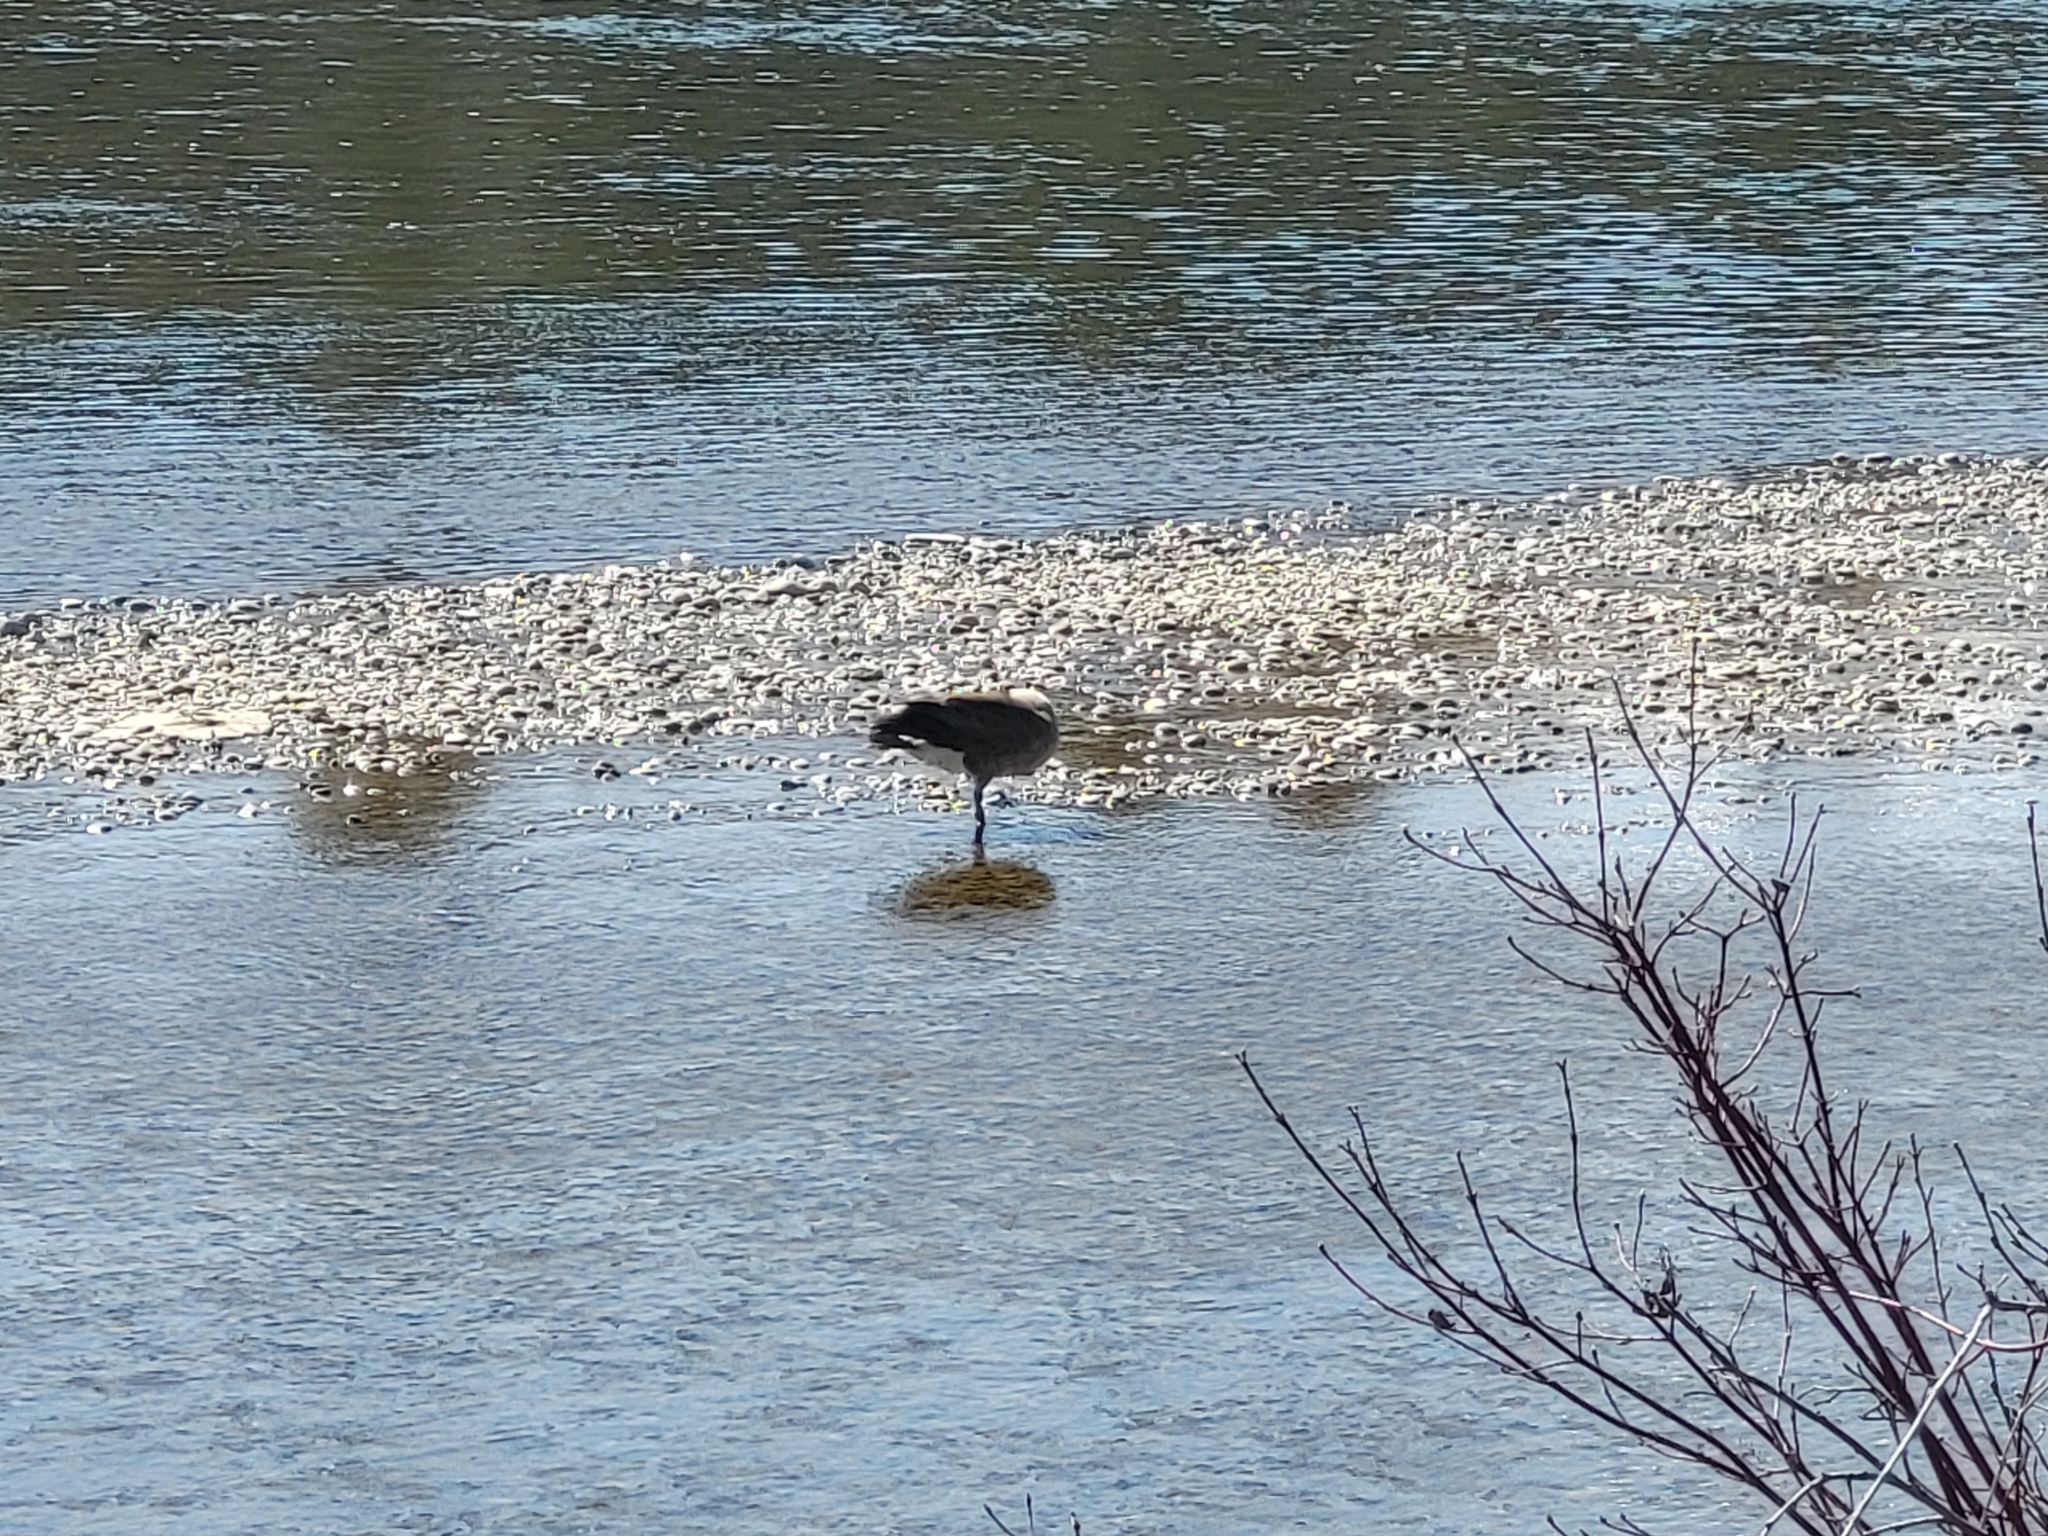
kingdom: Animalia
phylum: Chordata
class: Aves
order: Anseriformes
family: Anatidae
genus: Branta
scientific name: Branta canadensis
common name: Canada goose
